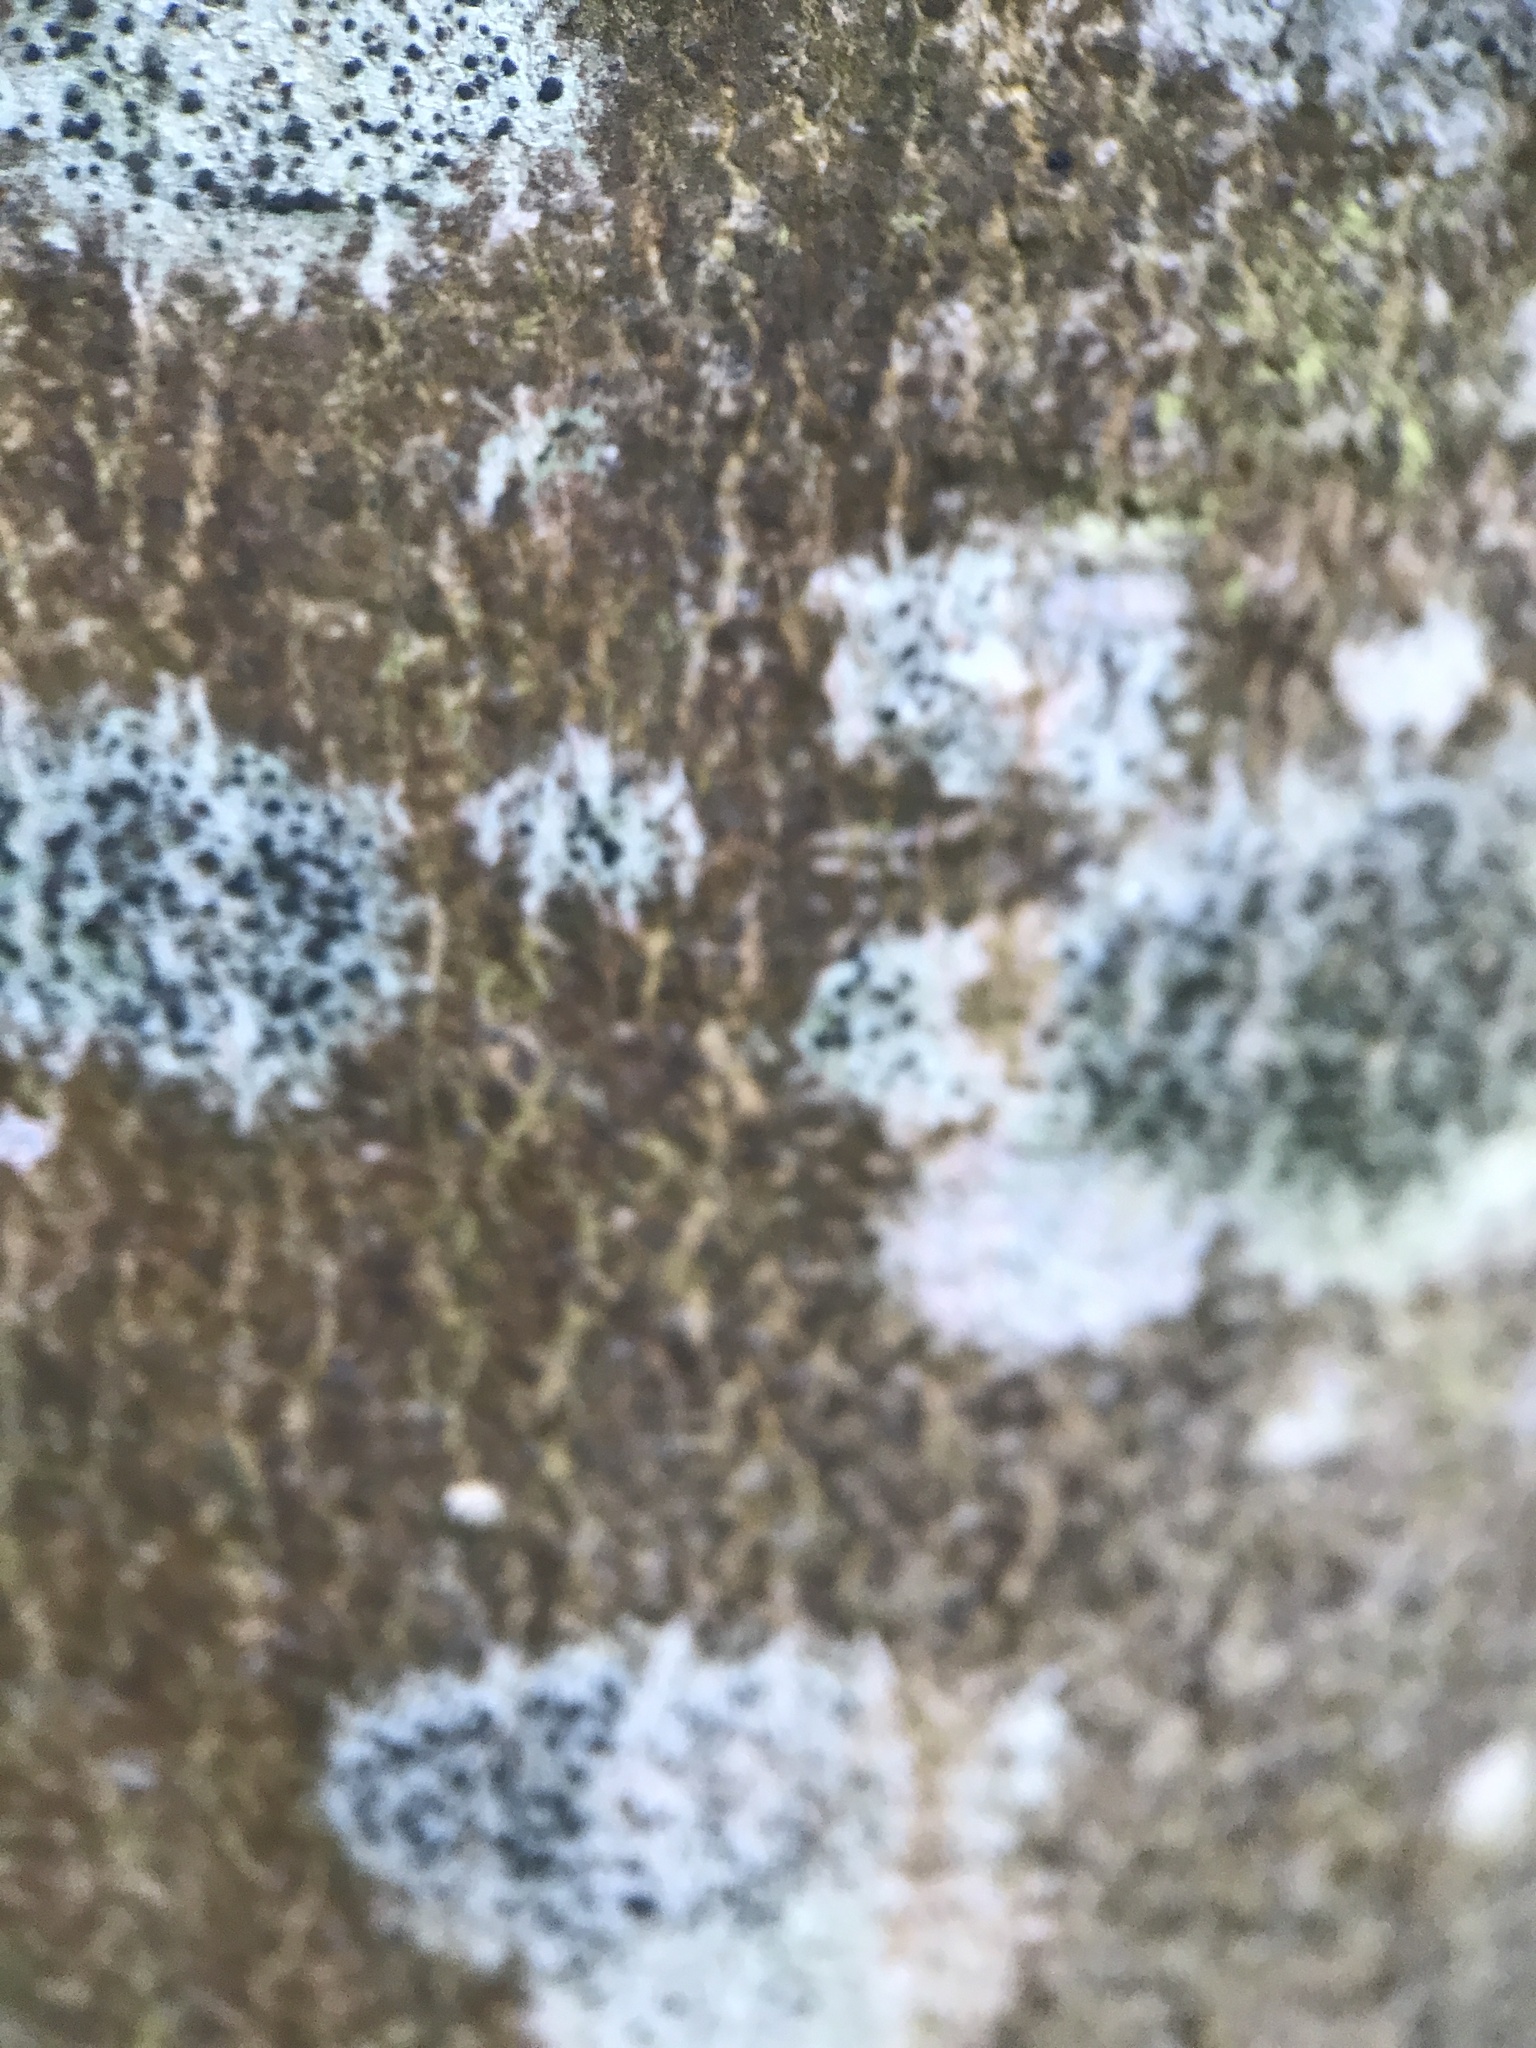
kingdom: Fungi
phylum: Ascomycota
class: Lecanoromycetes
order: Lecanorales
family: Lecanoraceae
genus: Lecidella
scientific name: Lecidella elaeochroma
